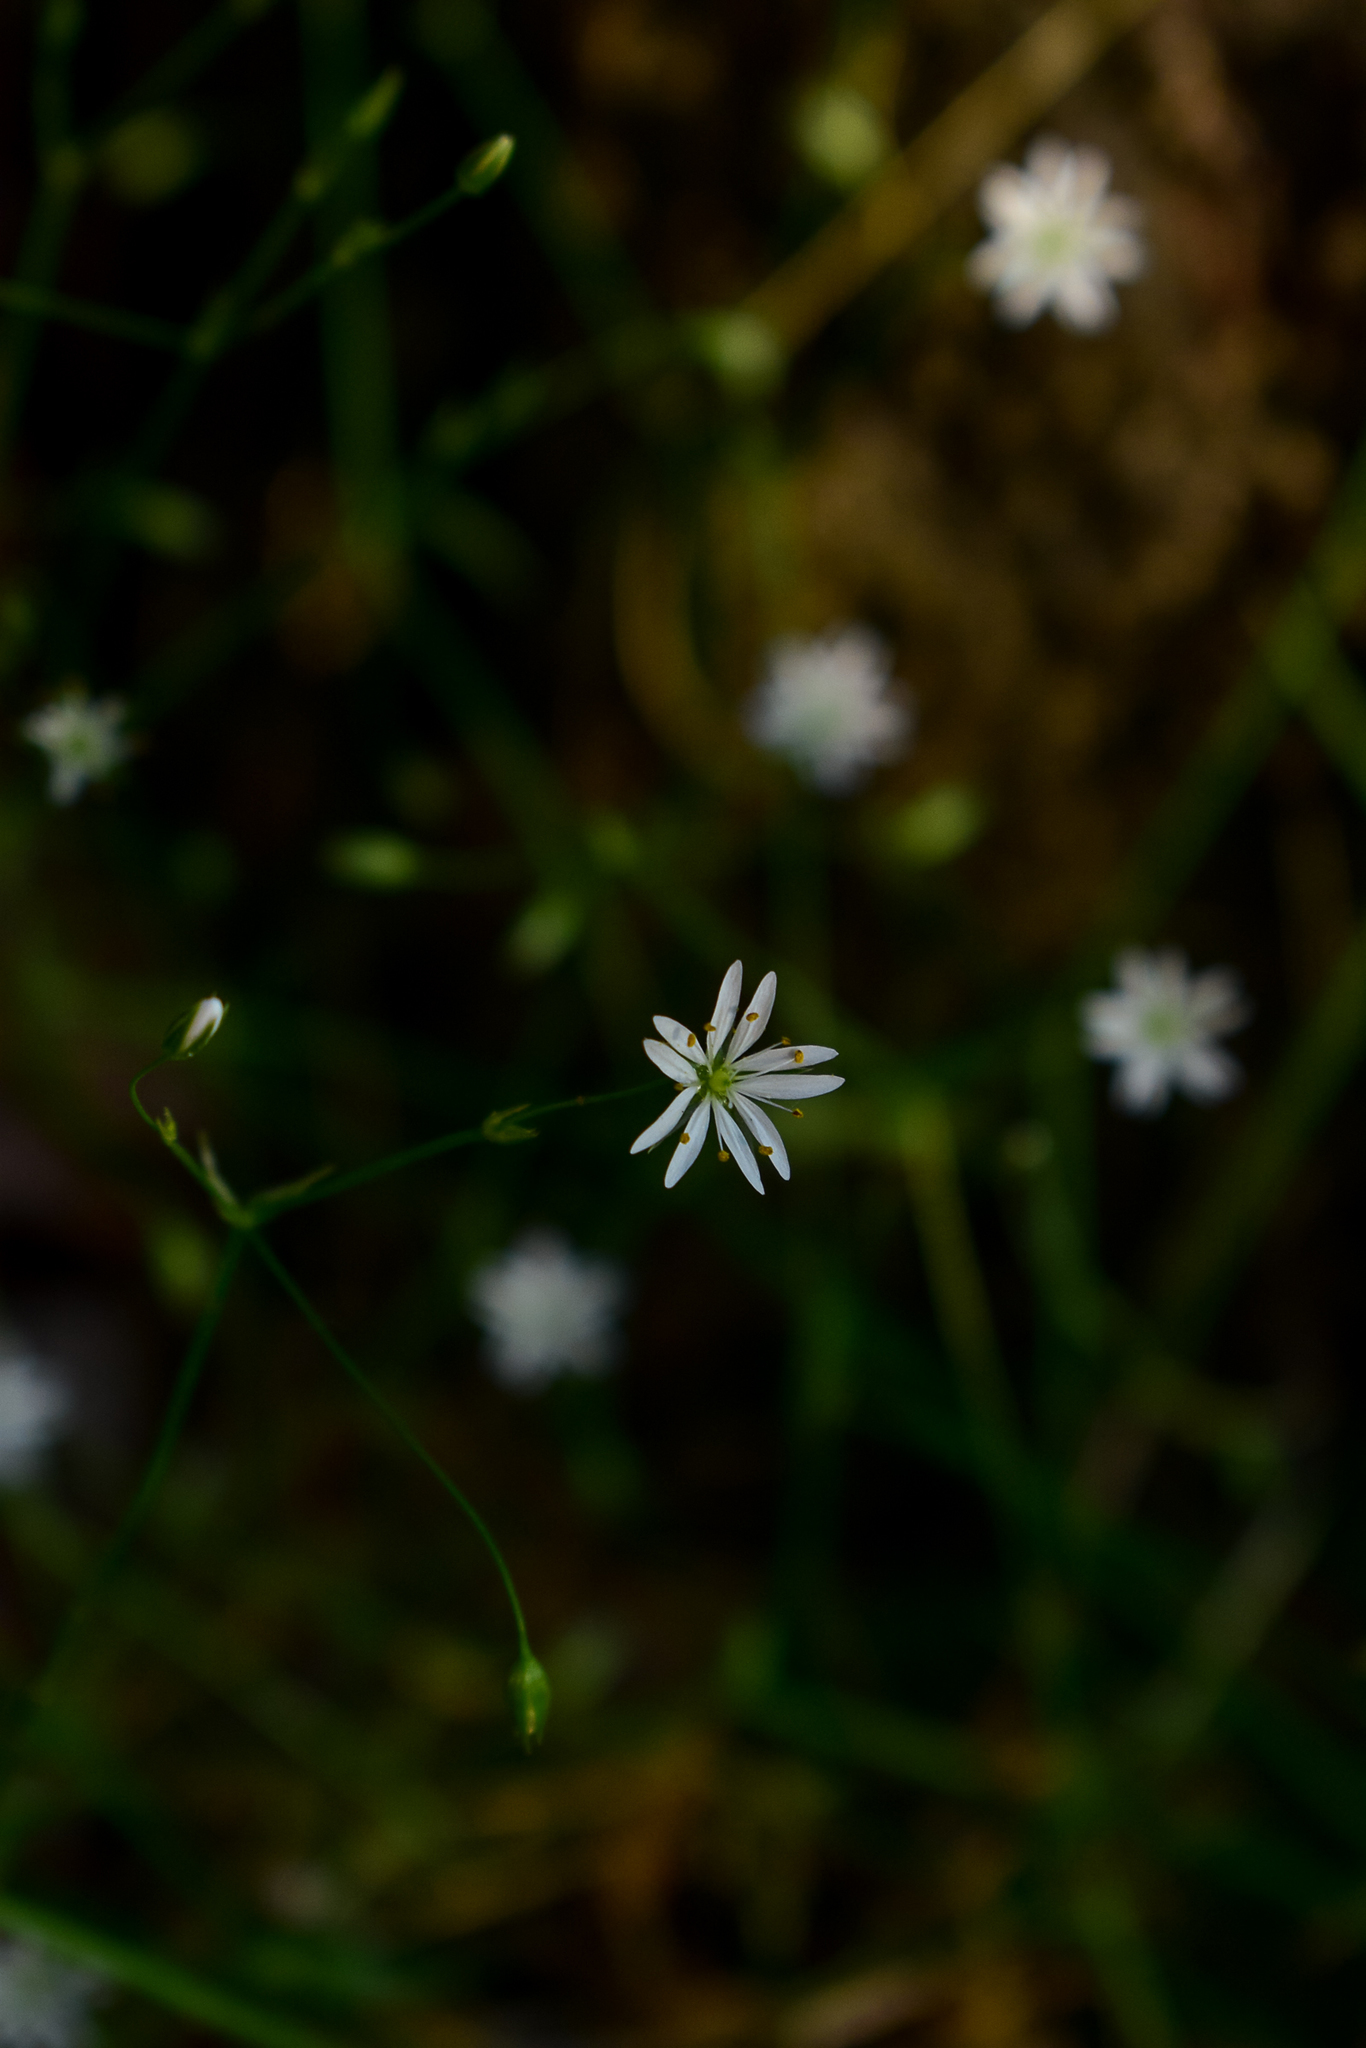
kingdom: Plantae
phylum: Tracheophyta
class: Magnoliopsida
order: Caryophyllales
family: Caryophyllaceae
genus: Stellaria
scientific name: Stellaria graminea
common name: Grass-like starwort
